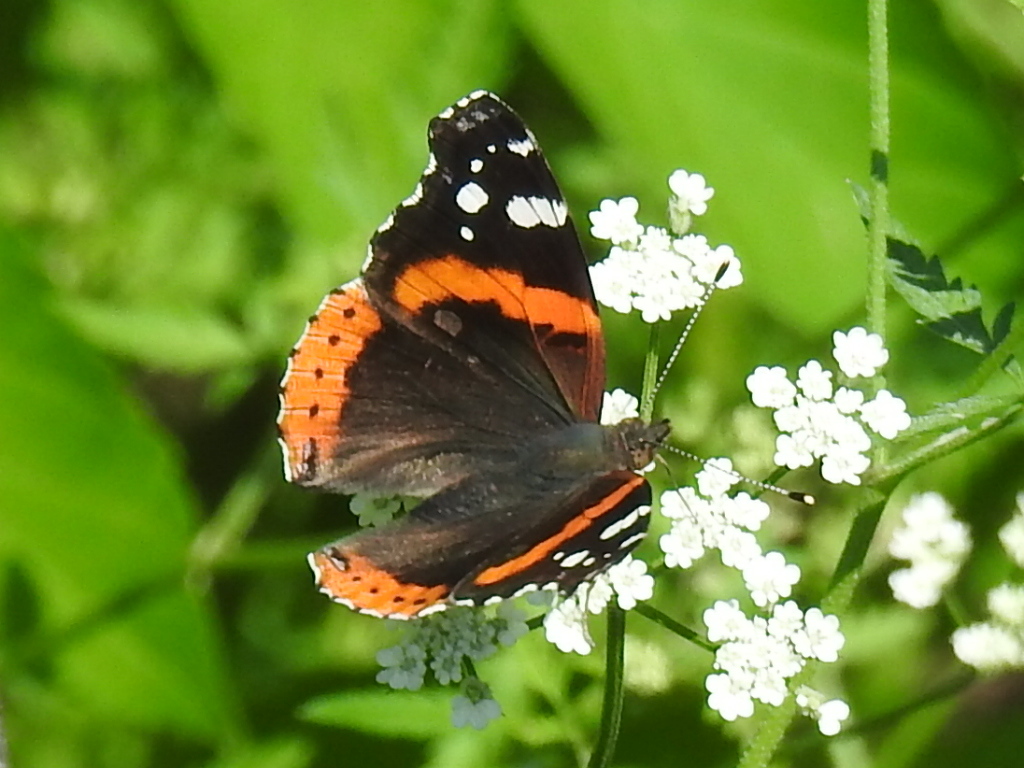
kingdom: Animalia
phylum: Arthropoda
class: Insecta
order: Lepidoptera
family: Nymphalidae
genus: Vanessa
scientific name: Vanessa atalanta
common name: Red admiral
